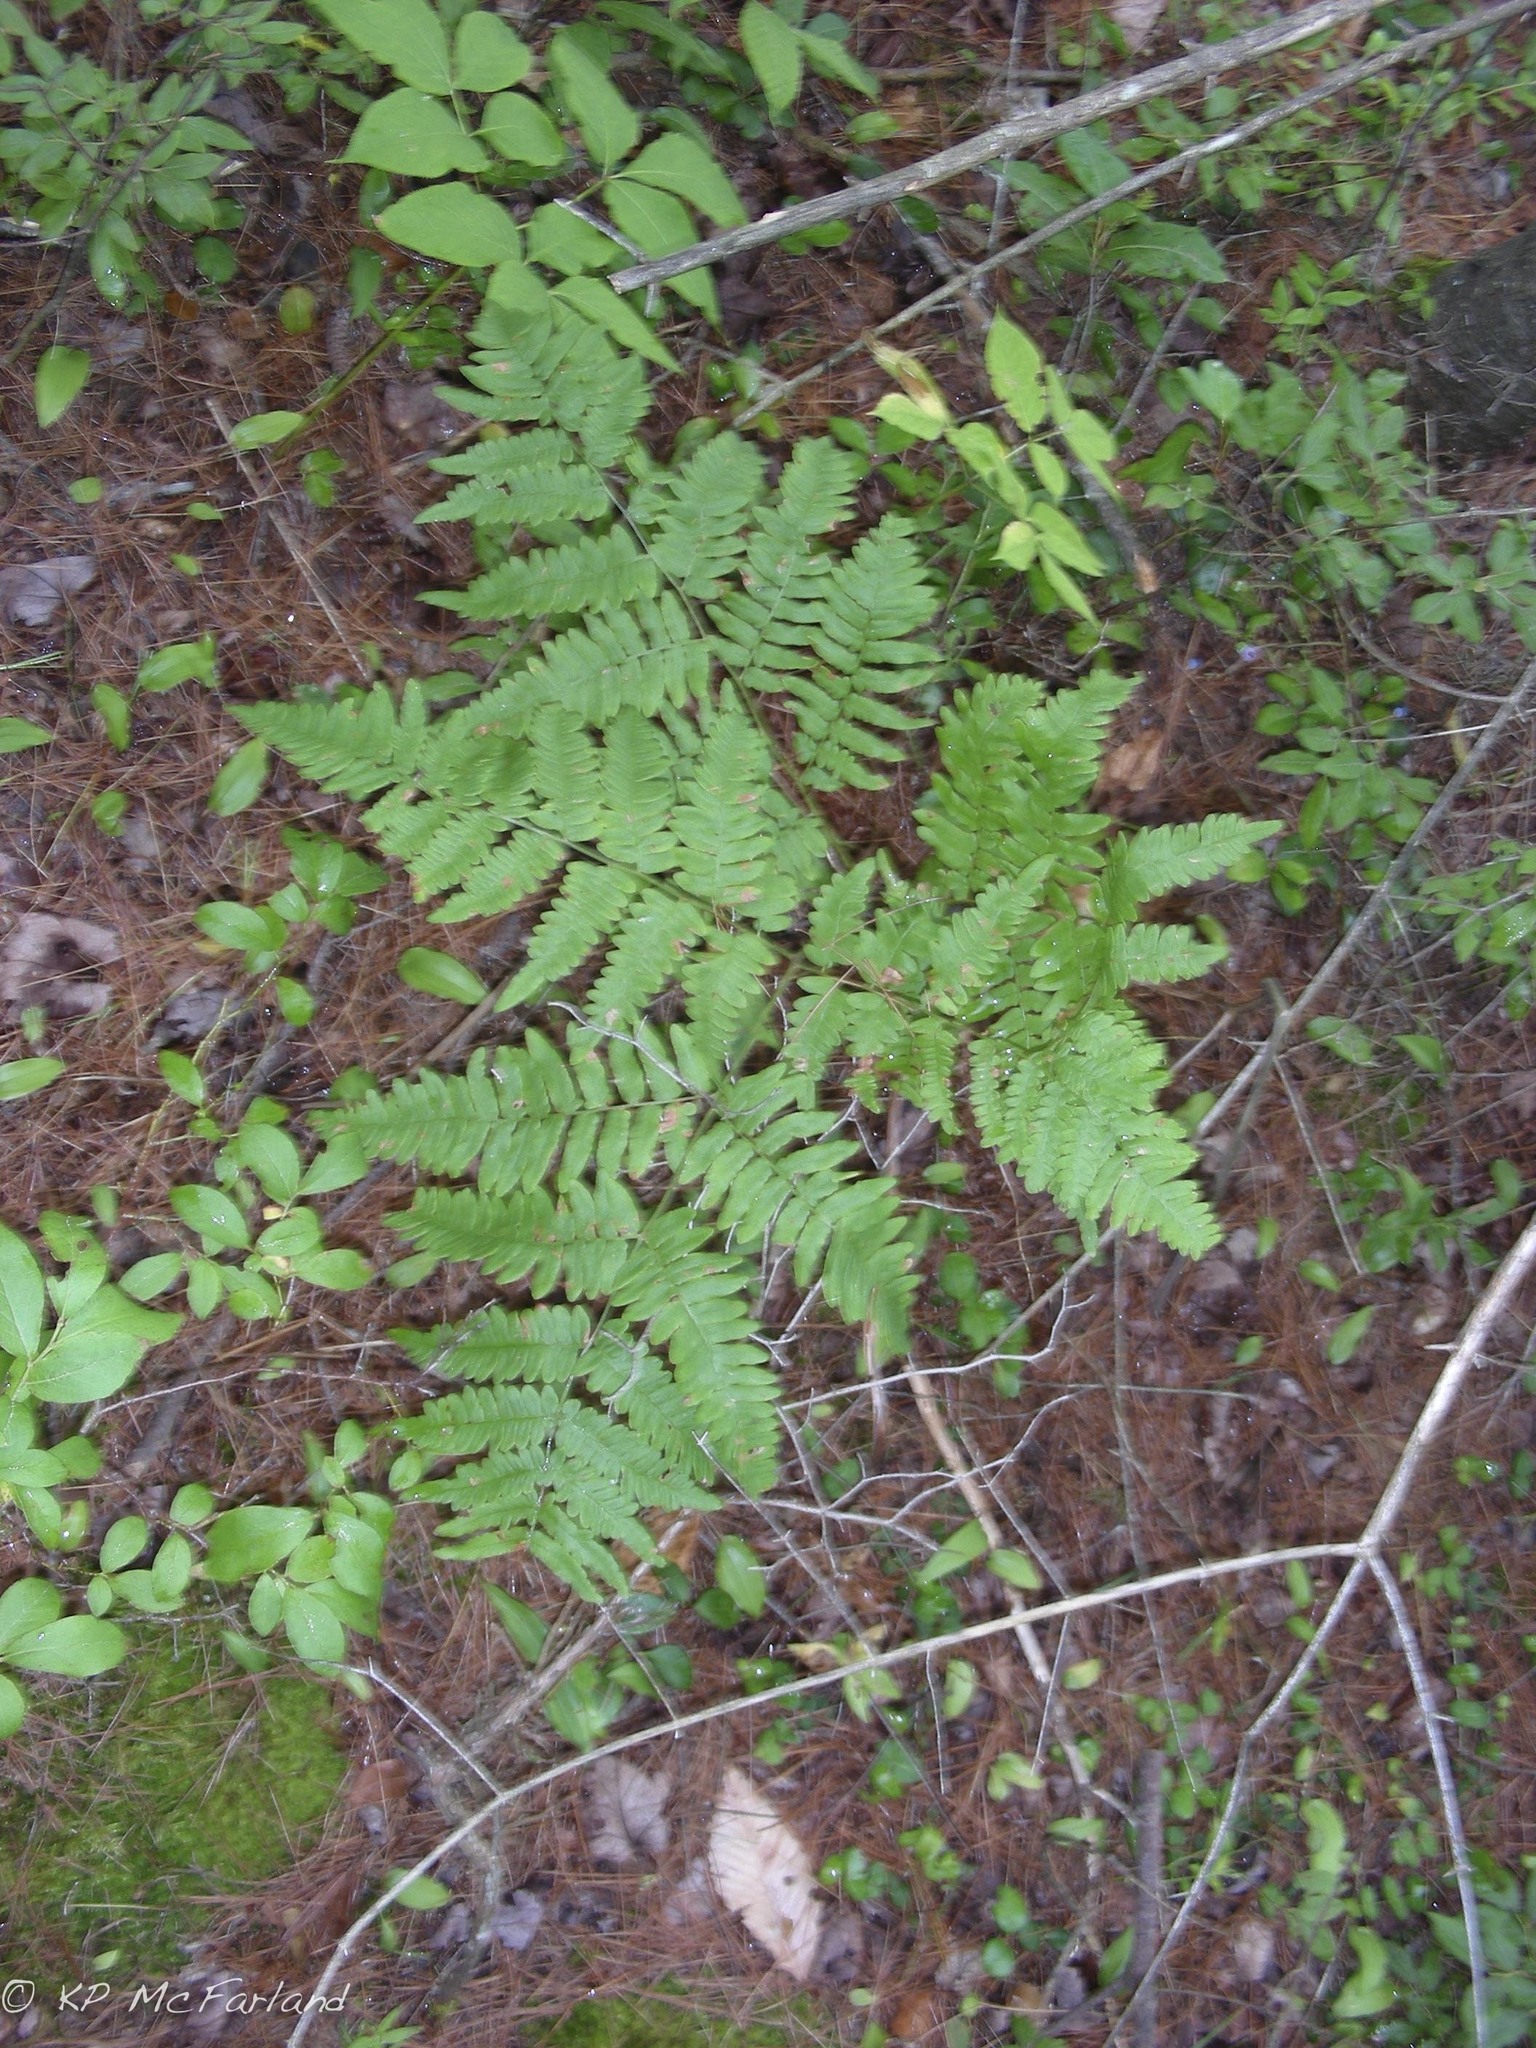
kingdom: Plantae
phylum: Tracheophyta
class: Polypodiopsida
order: Polypodiales
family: Dennstaedtiaceae
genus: Pteridium
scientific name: Pteridium aquilinum
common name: Bracken
